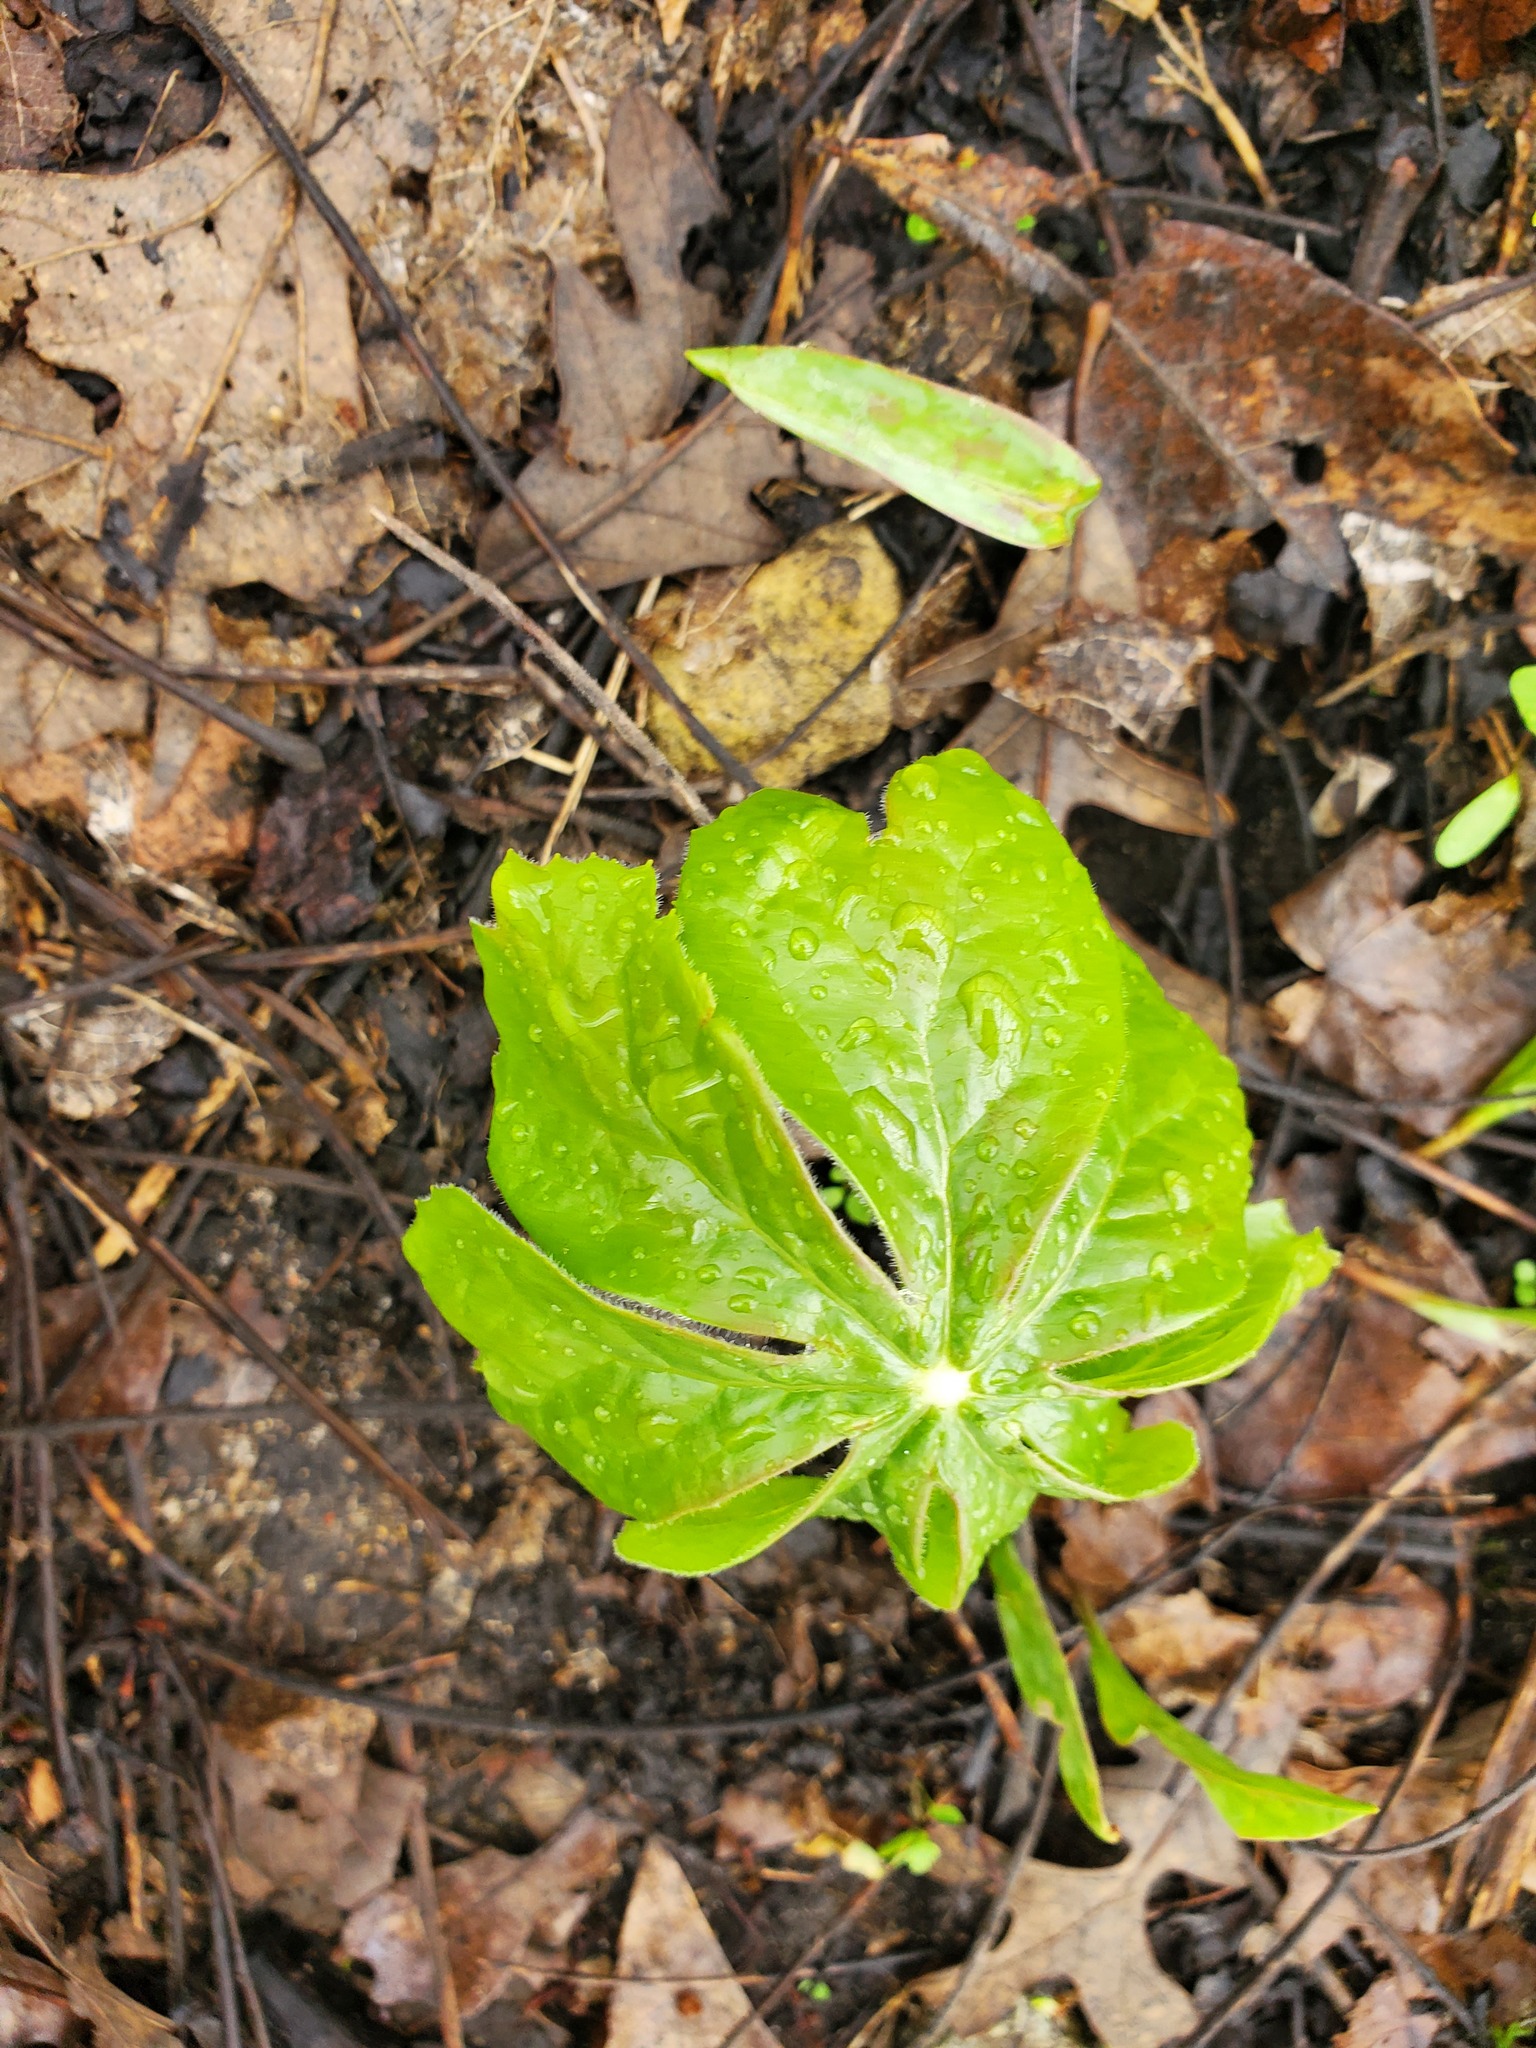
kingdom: Plantae
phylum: Tracheophyta
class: Magnoliopsida
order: Ranunculales
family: Berberidaceae
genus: Podophyllum
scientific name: Podophyllum peltatum
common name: Wild mandrake
